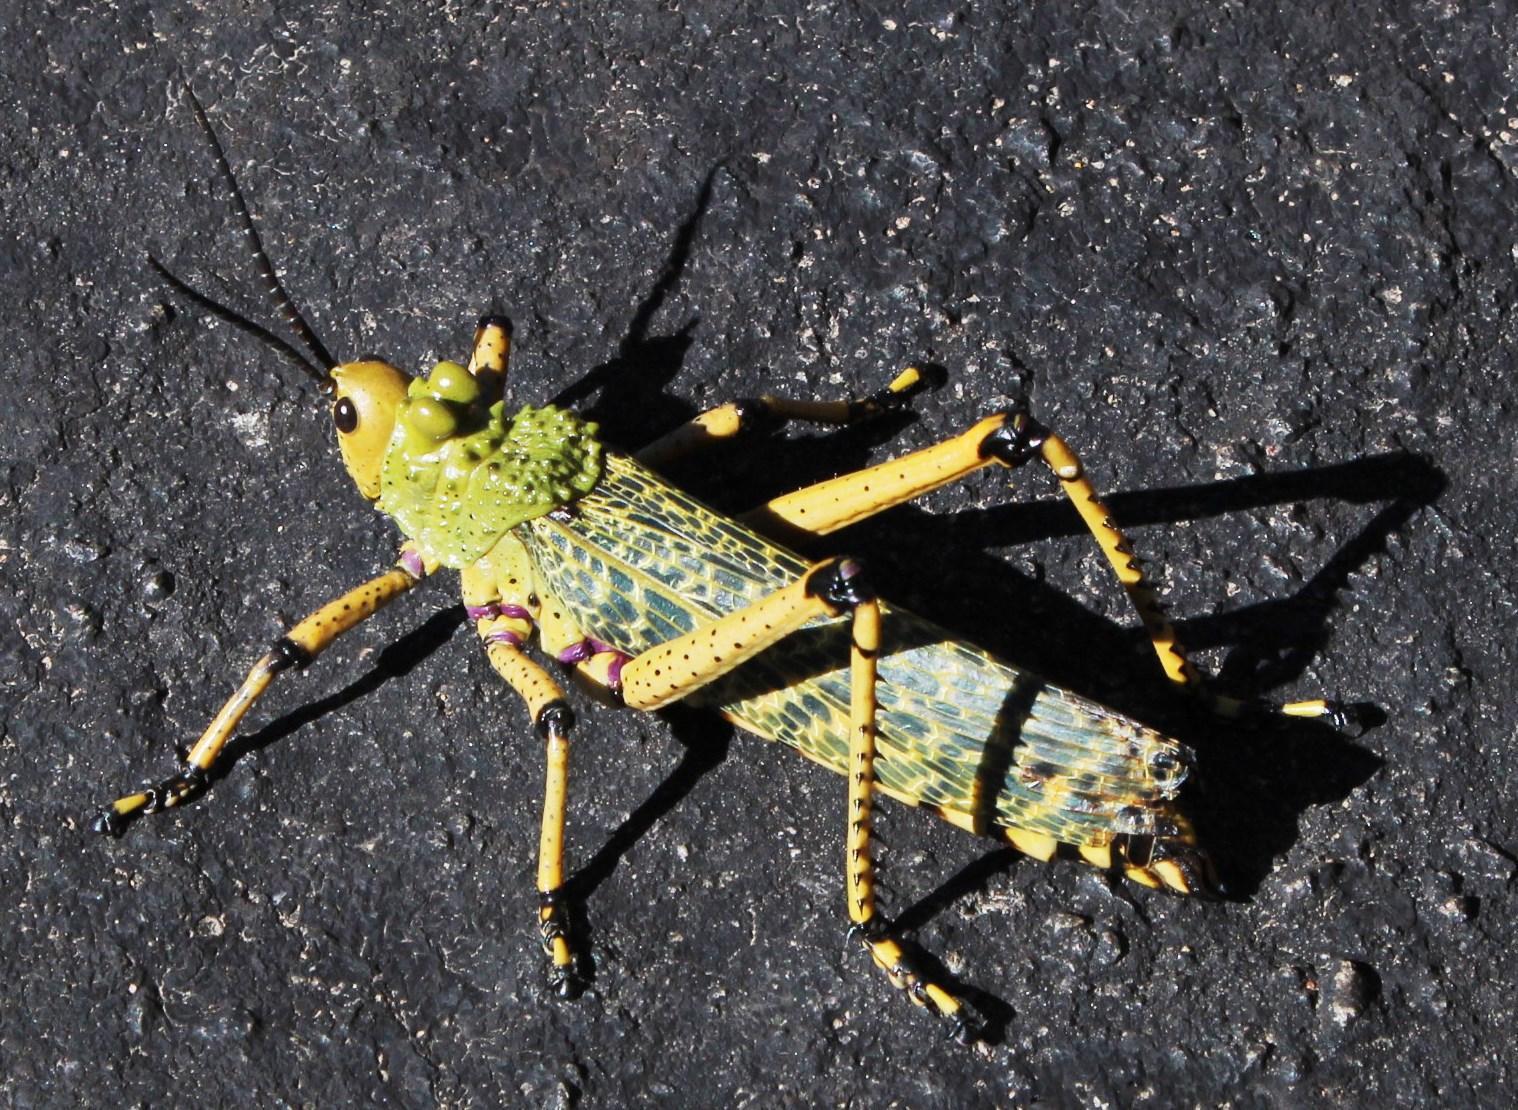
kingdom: Animalia
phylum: Arthropoda
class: Insecta
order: Orthoptera
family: Pyrgomorphidae
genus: Phymateus
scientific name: Phymateus leprosus
